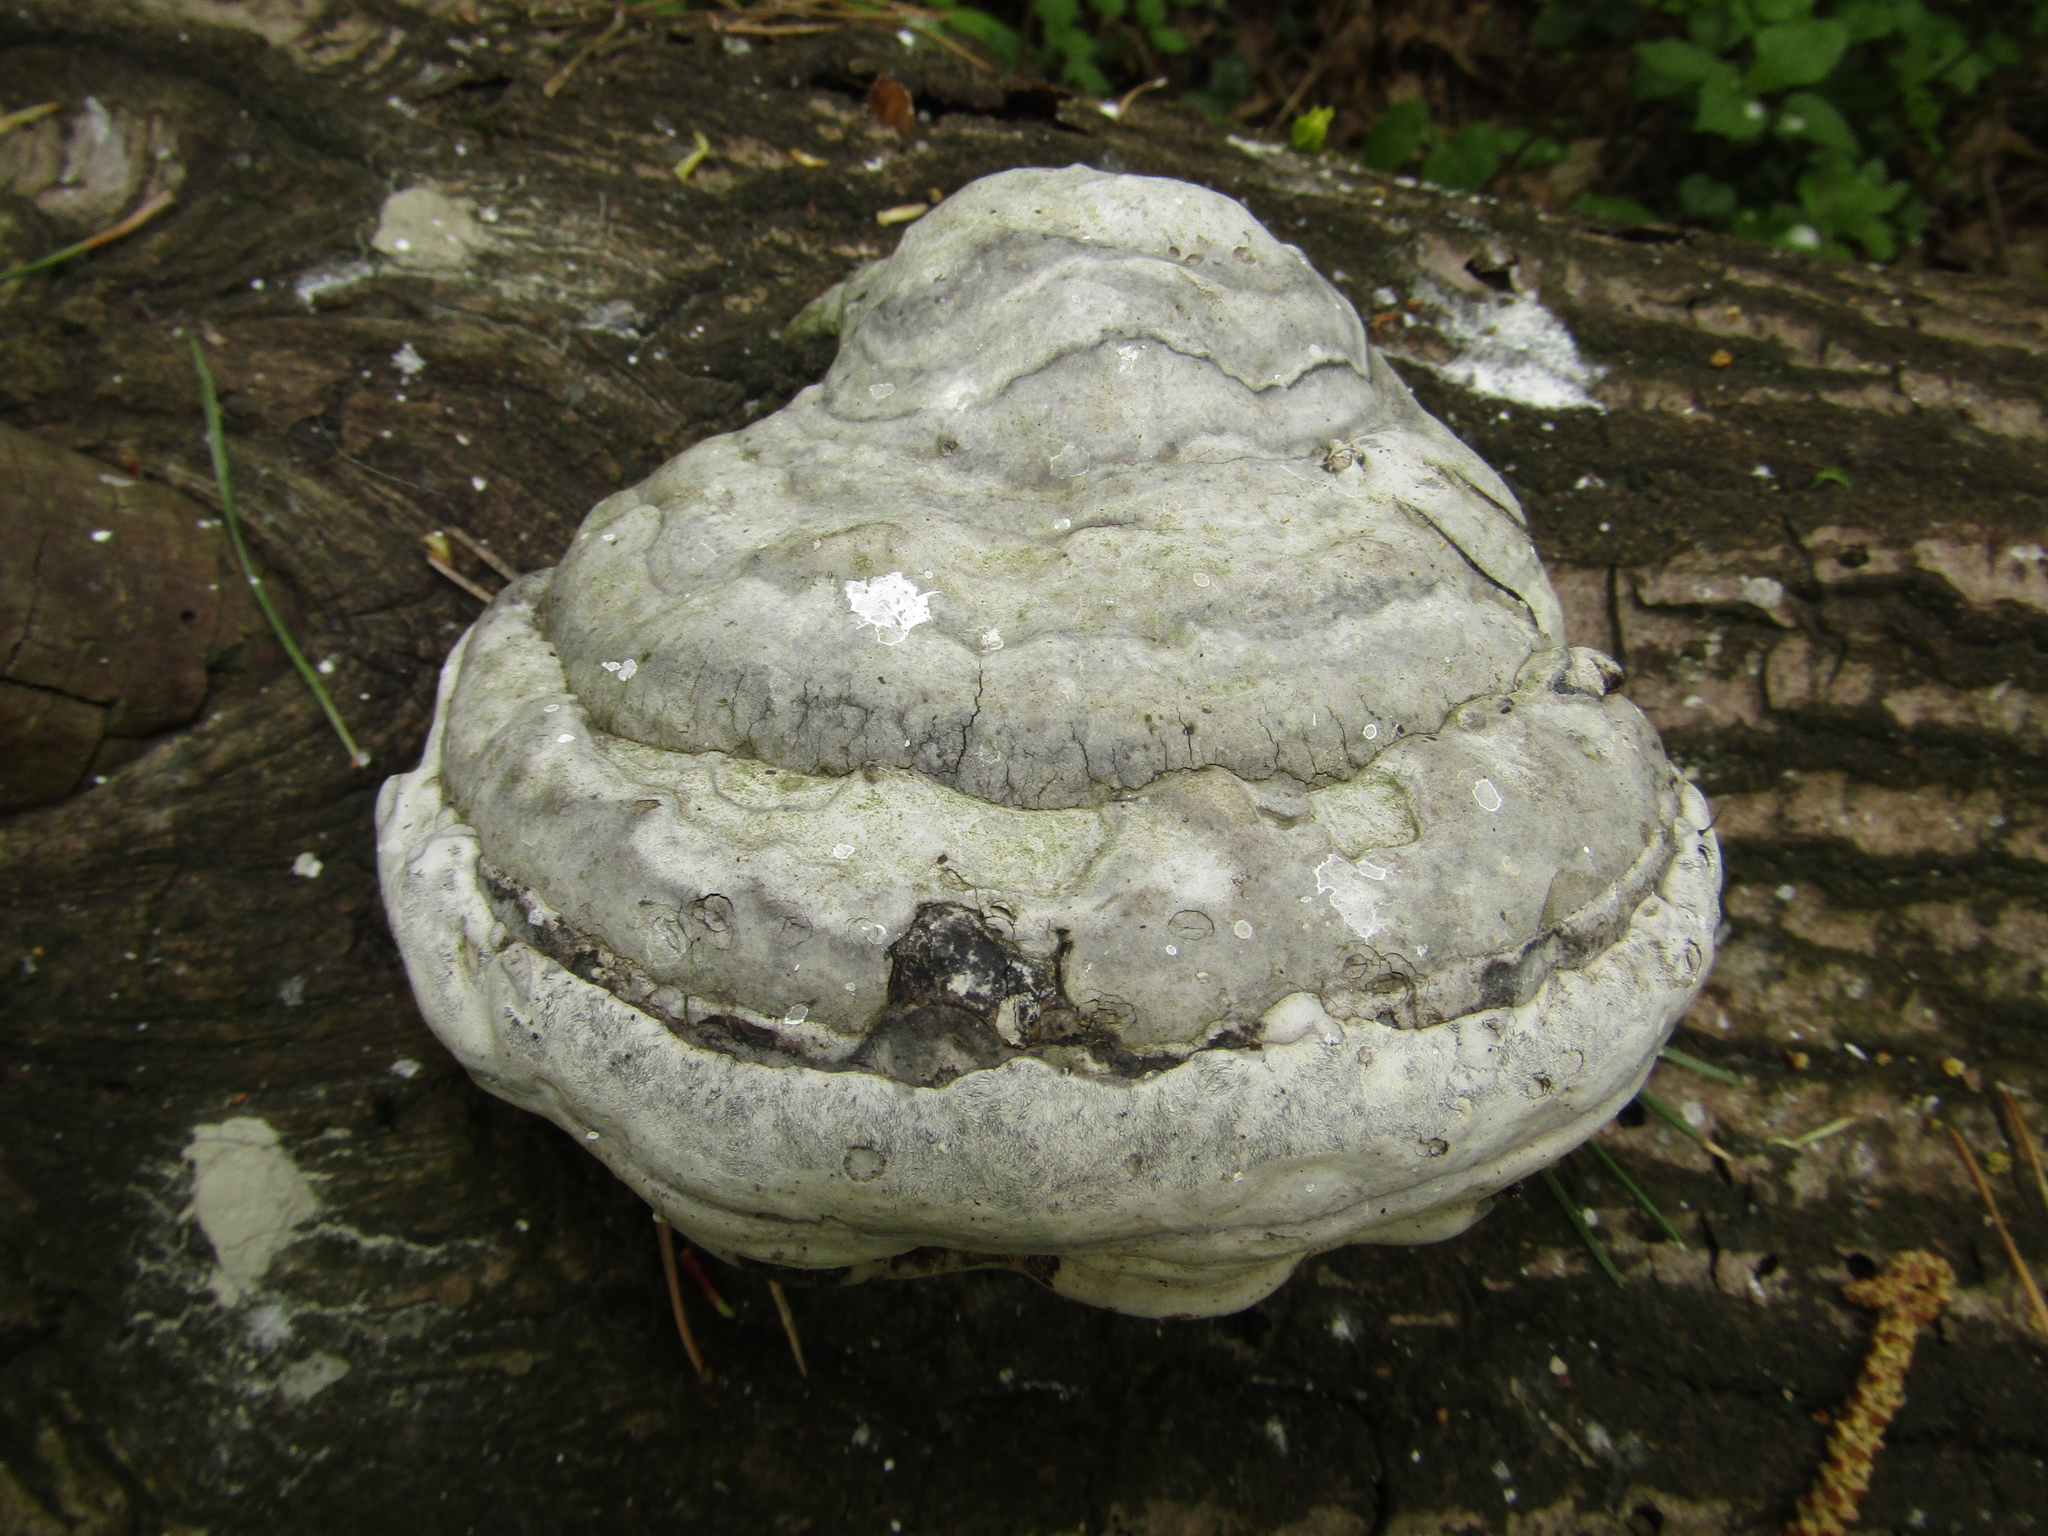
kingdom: Fungi
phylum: Basidiomycota
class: Agaricomycetes
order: Polyporales
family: Polyporaceae
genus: Fomes
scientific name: Fomes fomentarius
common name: Hoof fungus
